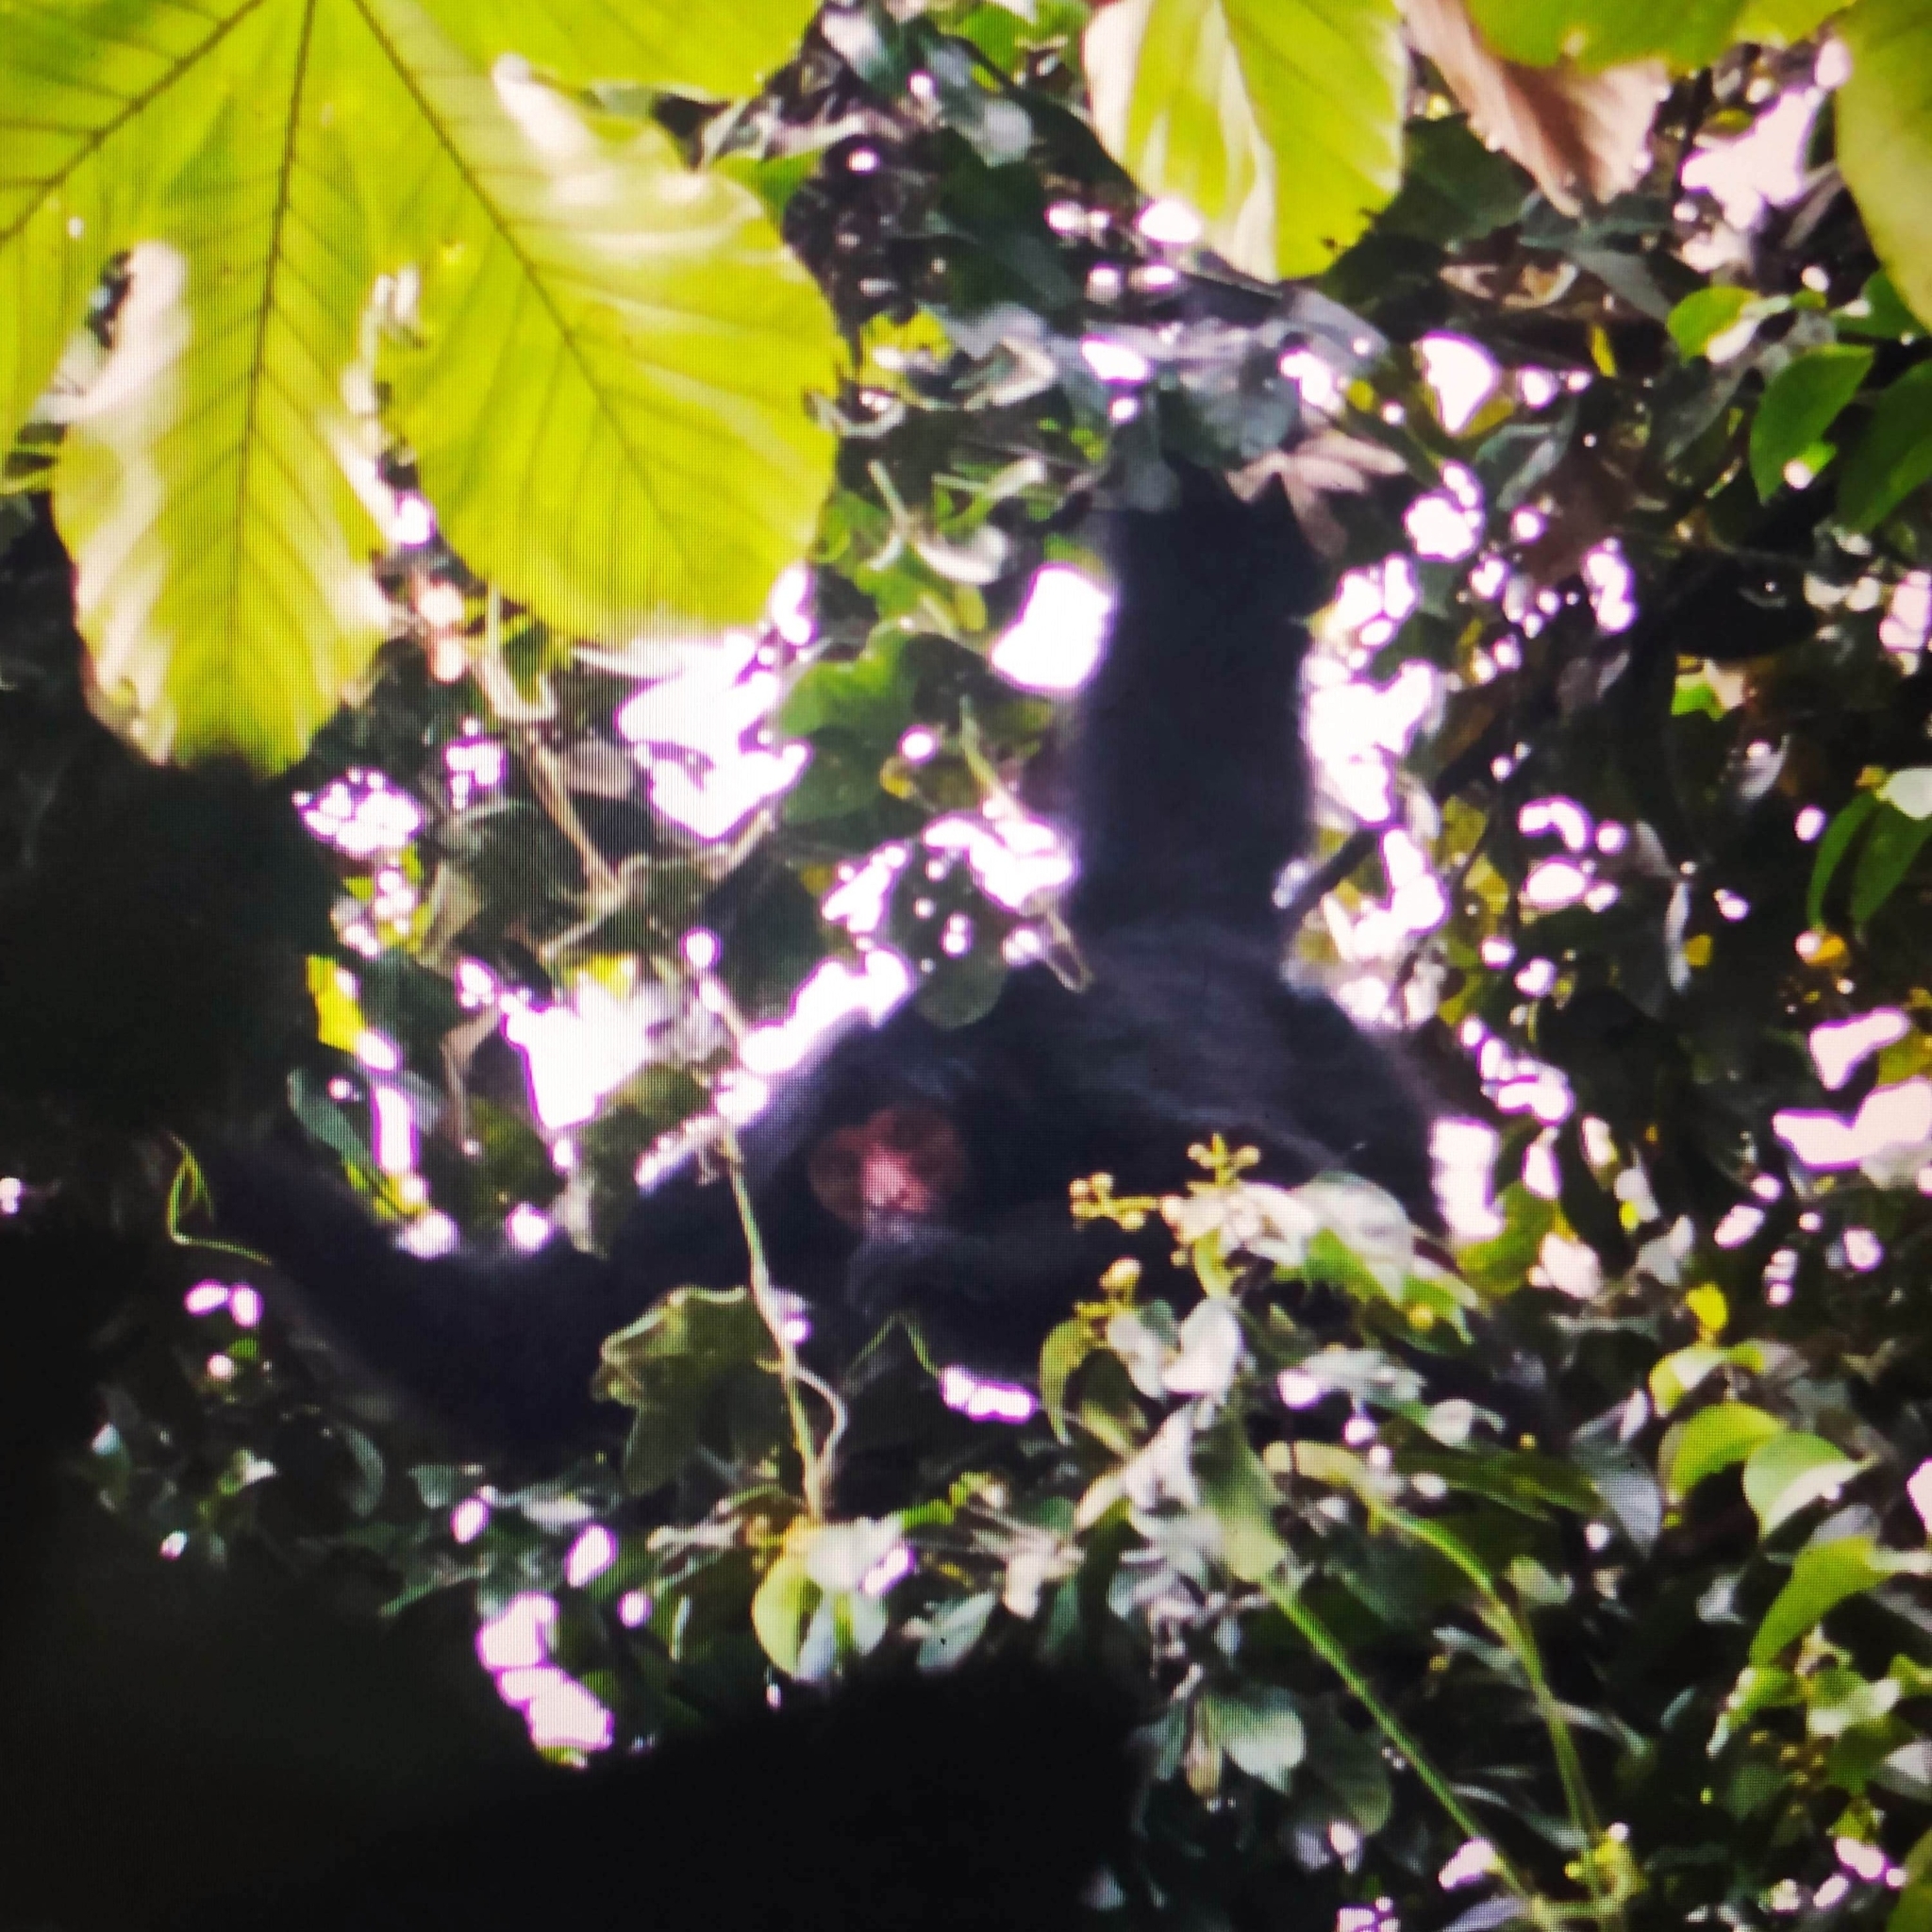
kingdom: Animalia
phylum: Chordata
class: Mammalia
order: Primates
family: Atelidae
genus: Ateles
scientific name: Ateles paniscus
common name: Red-faced spider monkey
